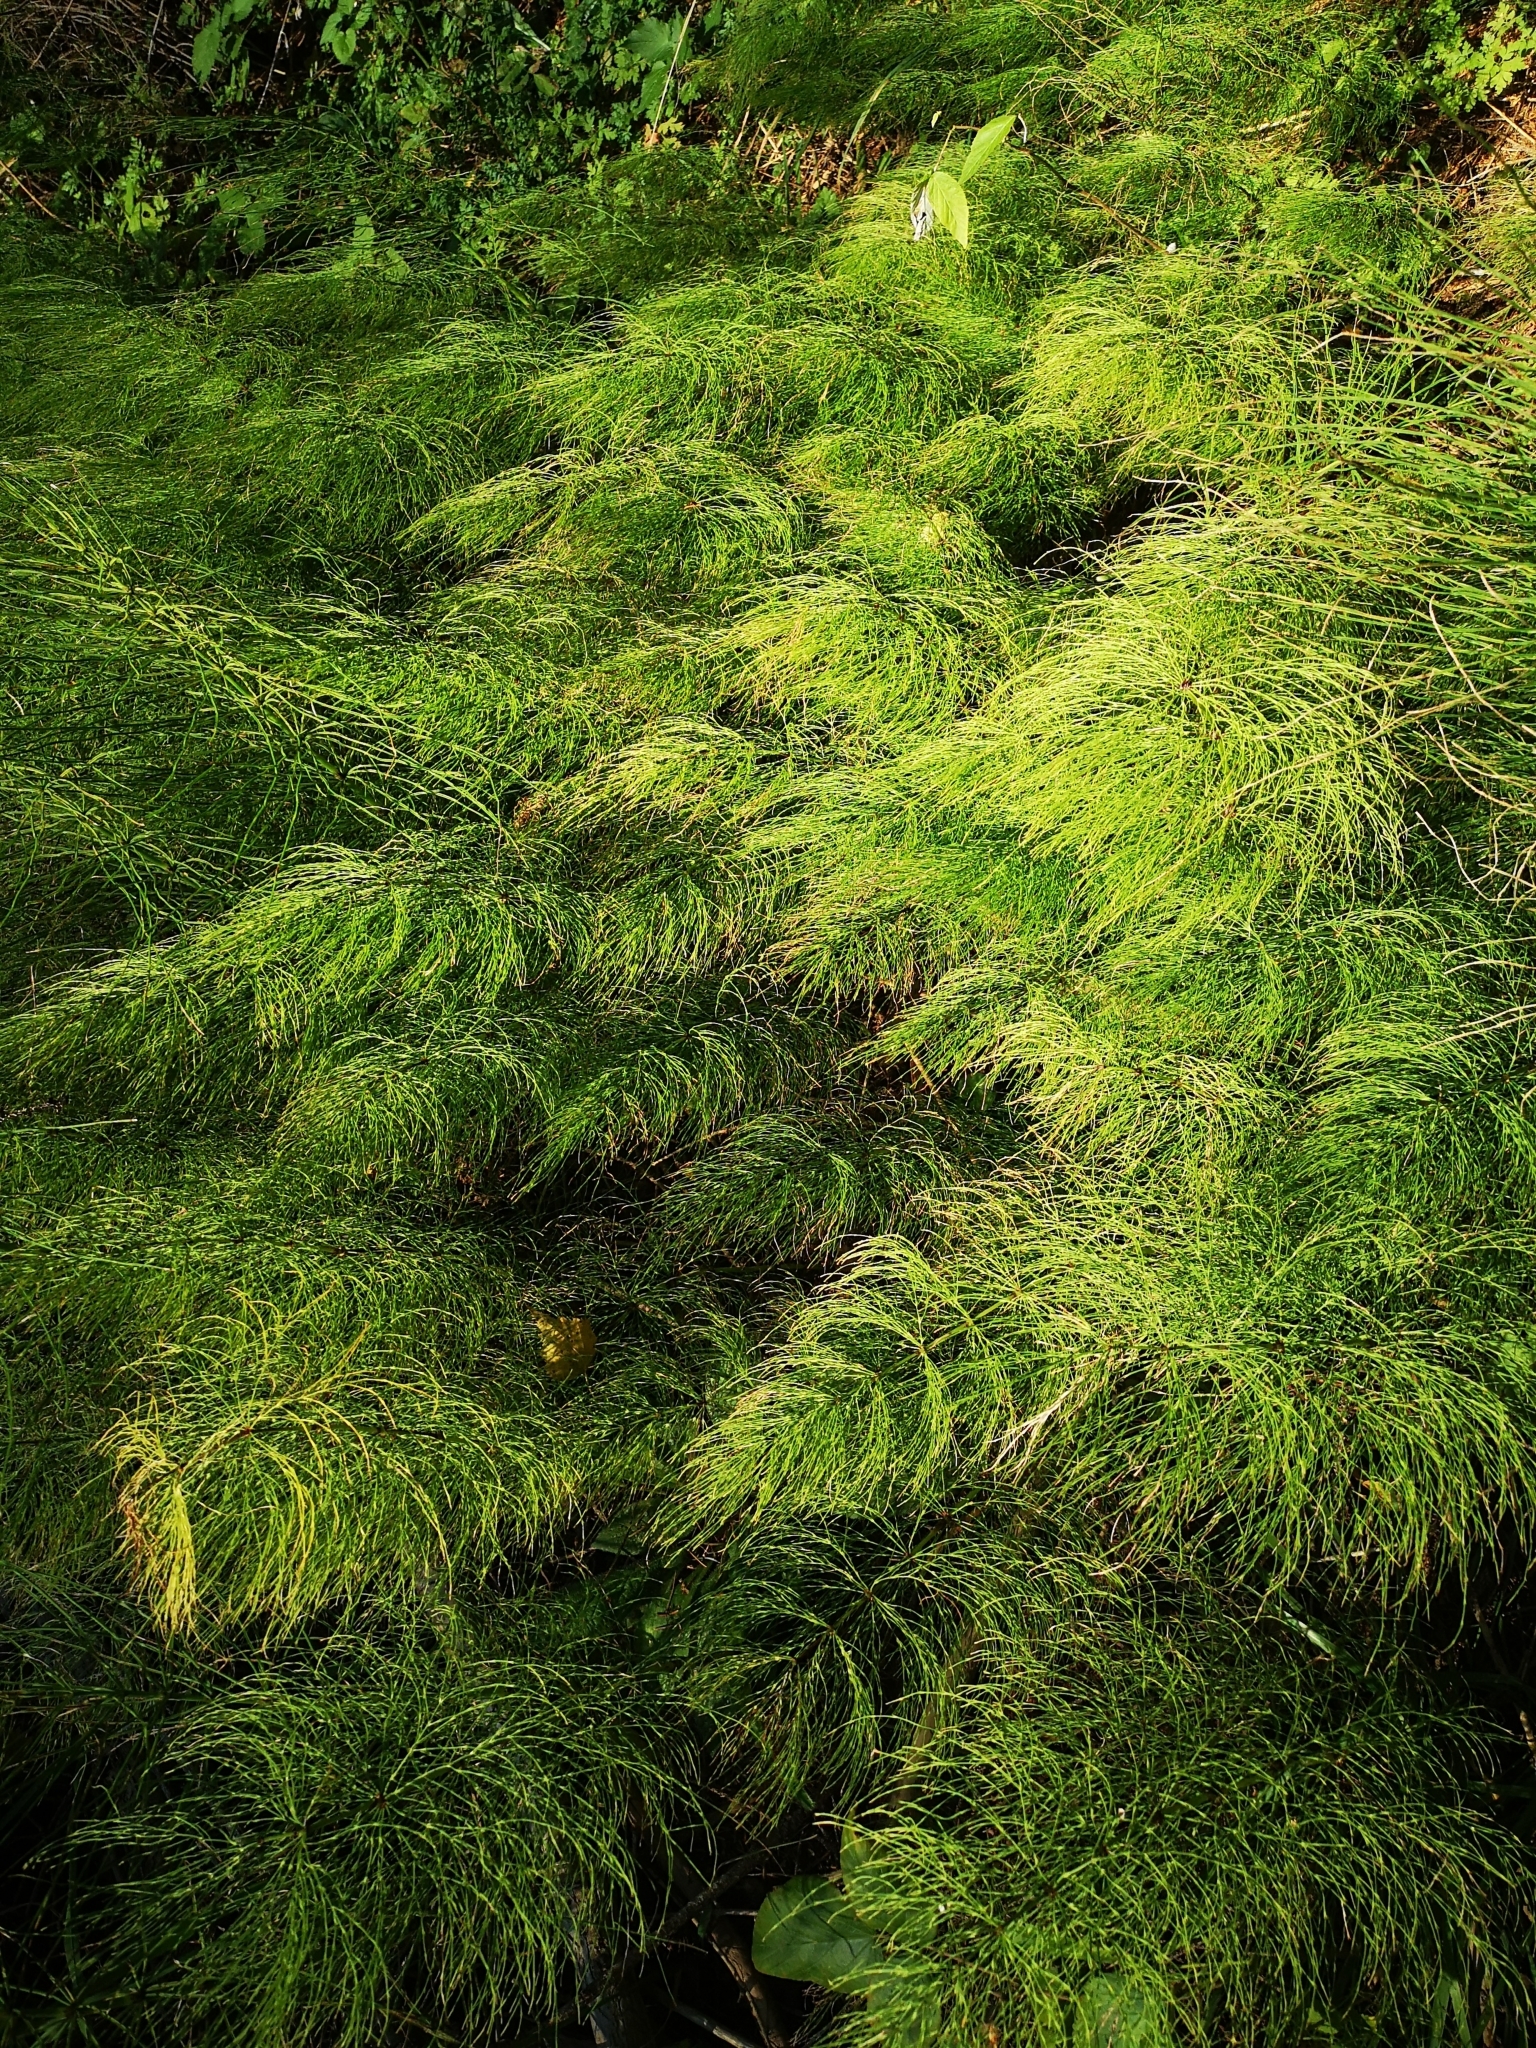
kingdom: Plantae
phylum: Tracheophyta
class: Polypodiopsida
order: Equisetales
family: Equisetaceae
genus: Equisetum
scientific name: Equisetum sylvaticum
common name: Wood horsetail
